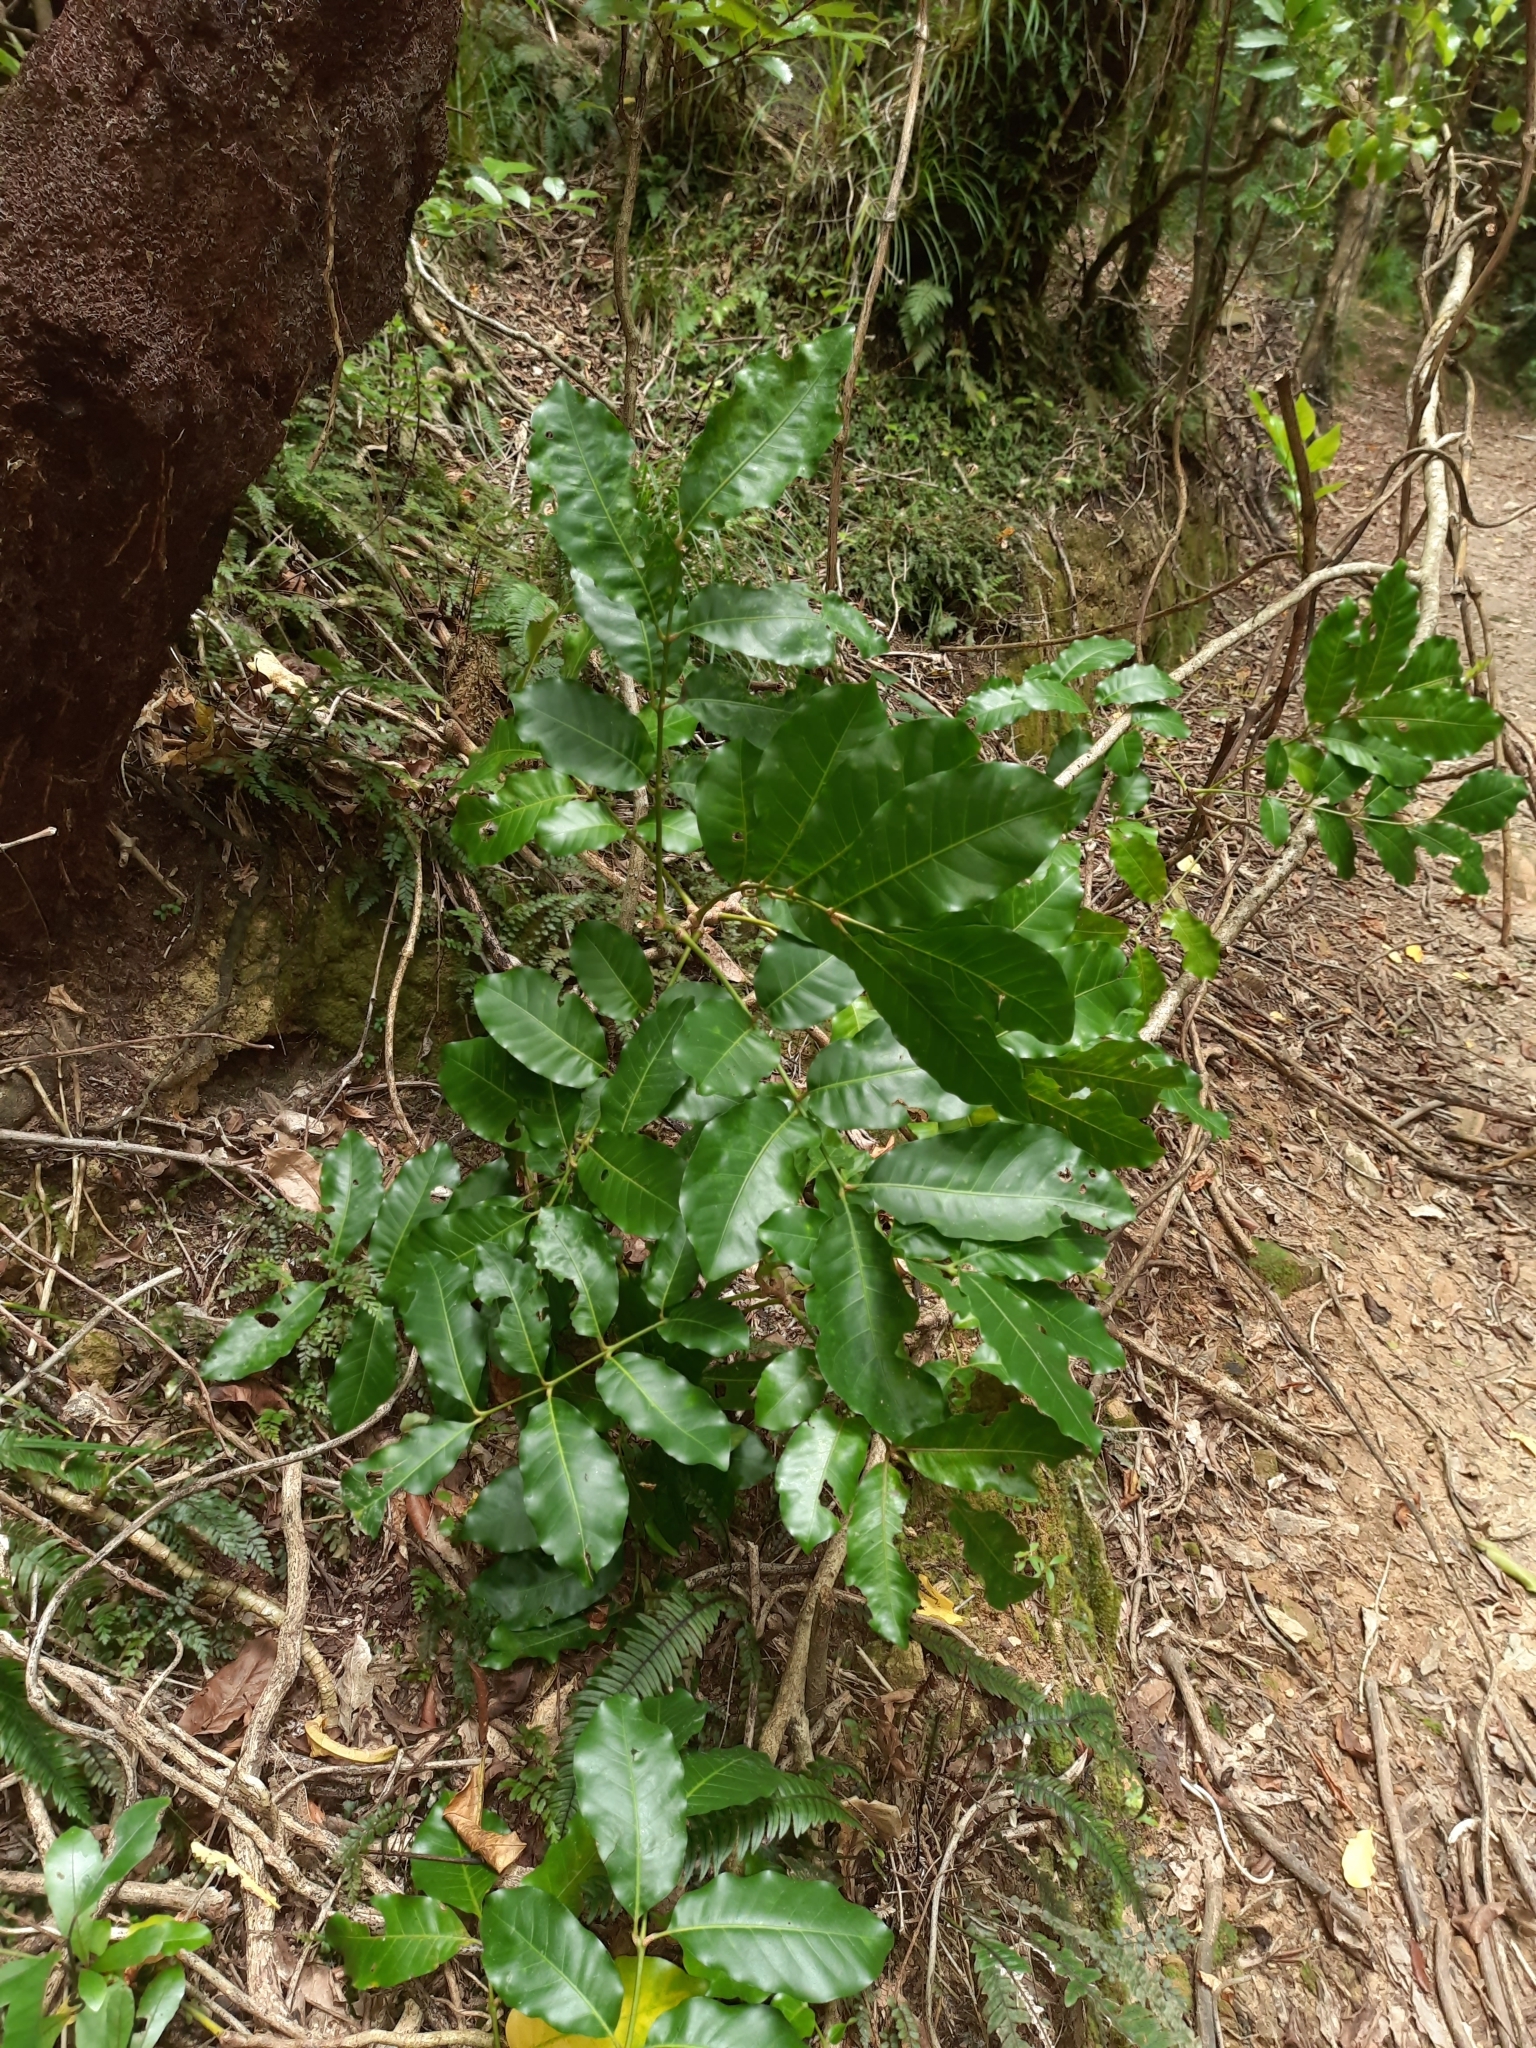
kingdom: Plantae
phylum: Tracheophyta
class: Magnoliopsida
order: Sapindales
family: Meliaceae
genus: Didymocheton
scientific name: Didymocheton spectabilis
